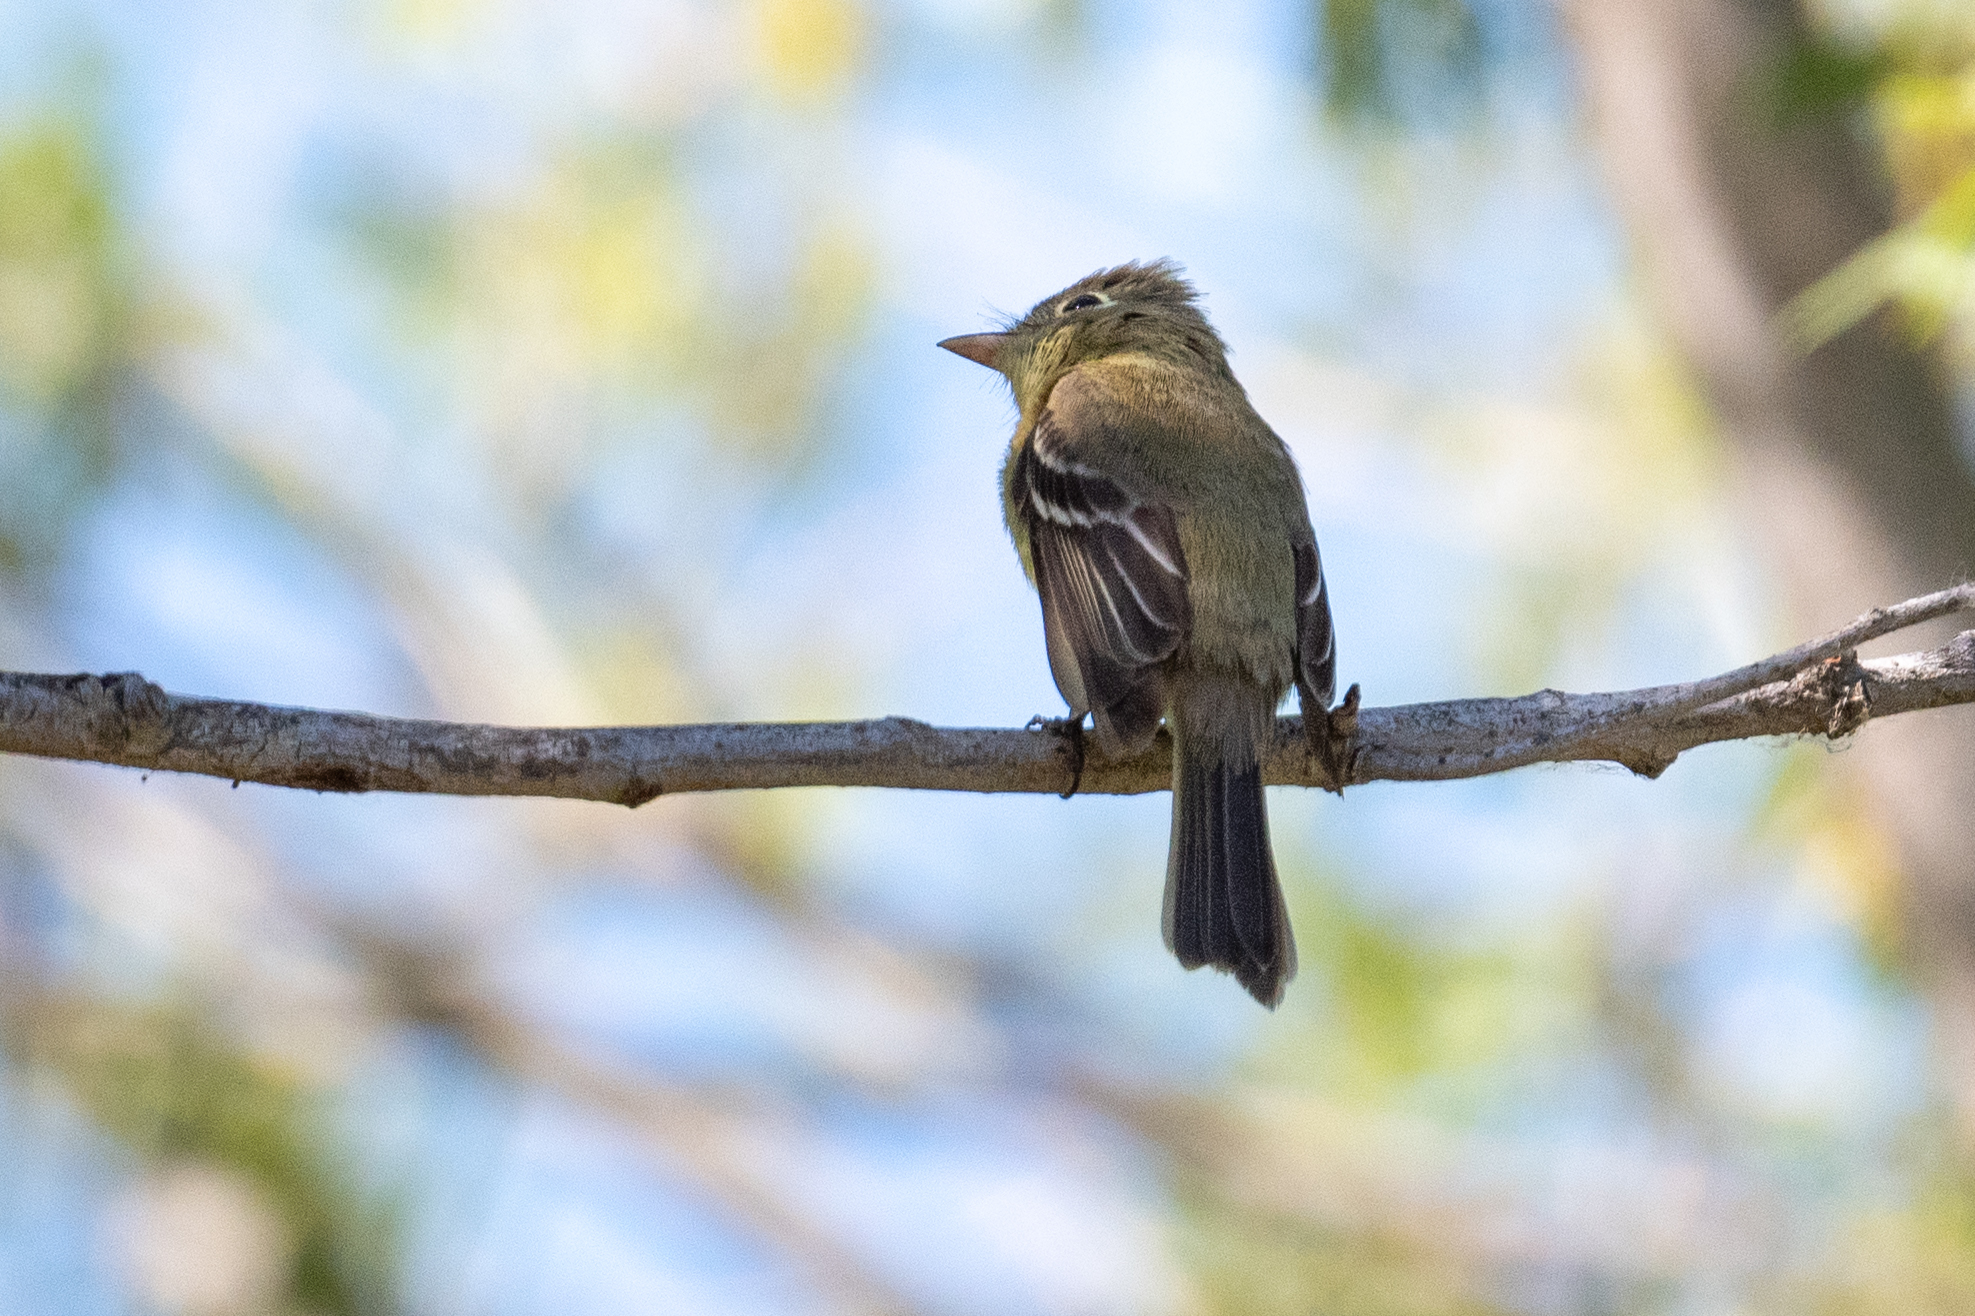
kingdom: Animalia
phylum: Chordata
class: Aves
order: Passeriformes
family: Tyrannidae
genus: Empidonax
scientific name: Empidonax difficilis
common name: Pacific-slope flycatcher
